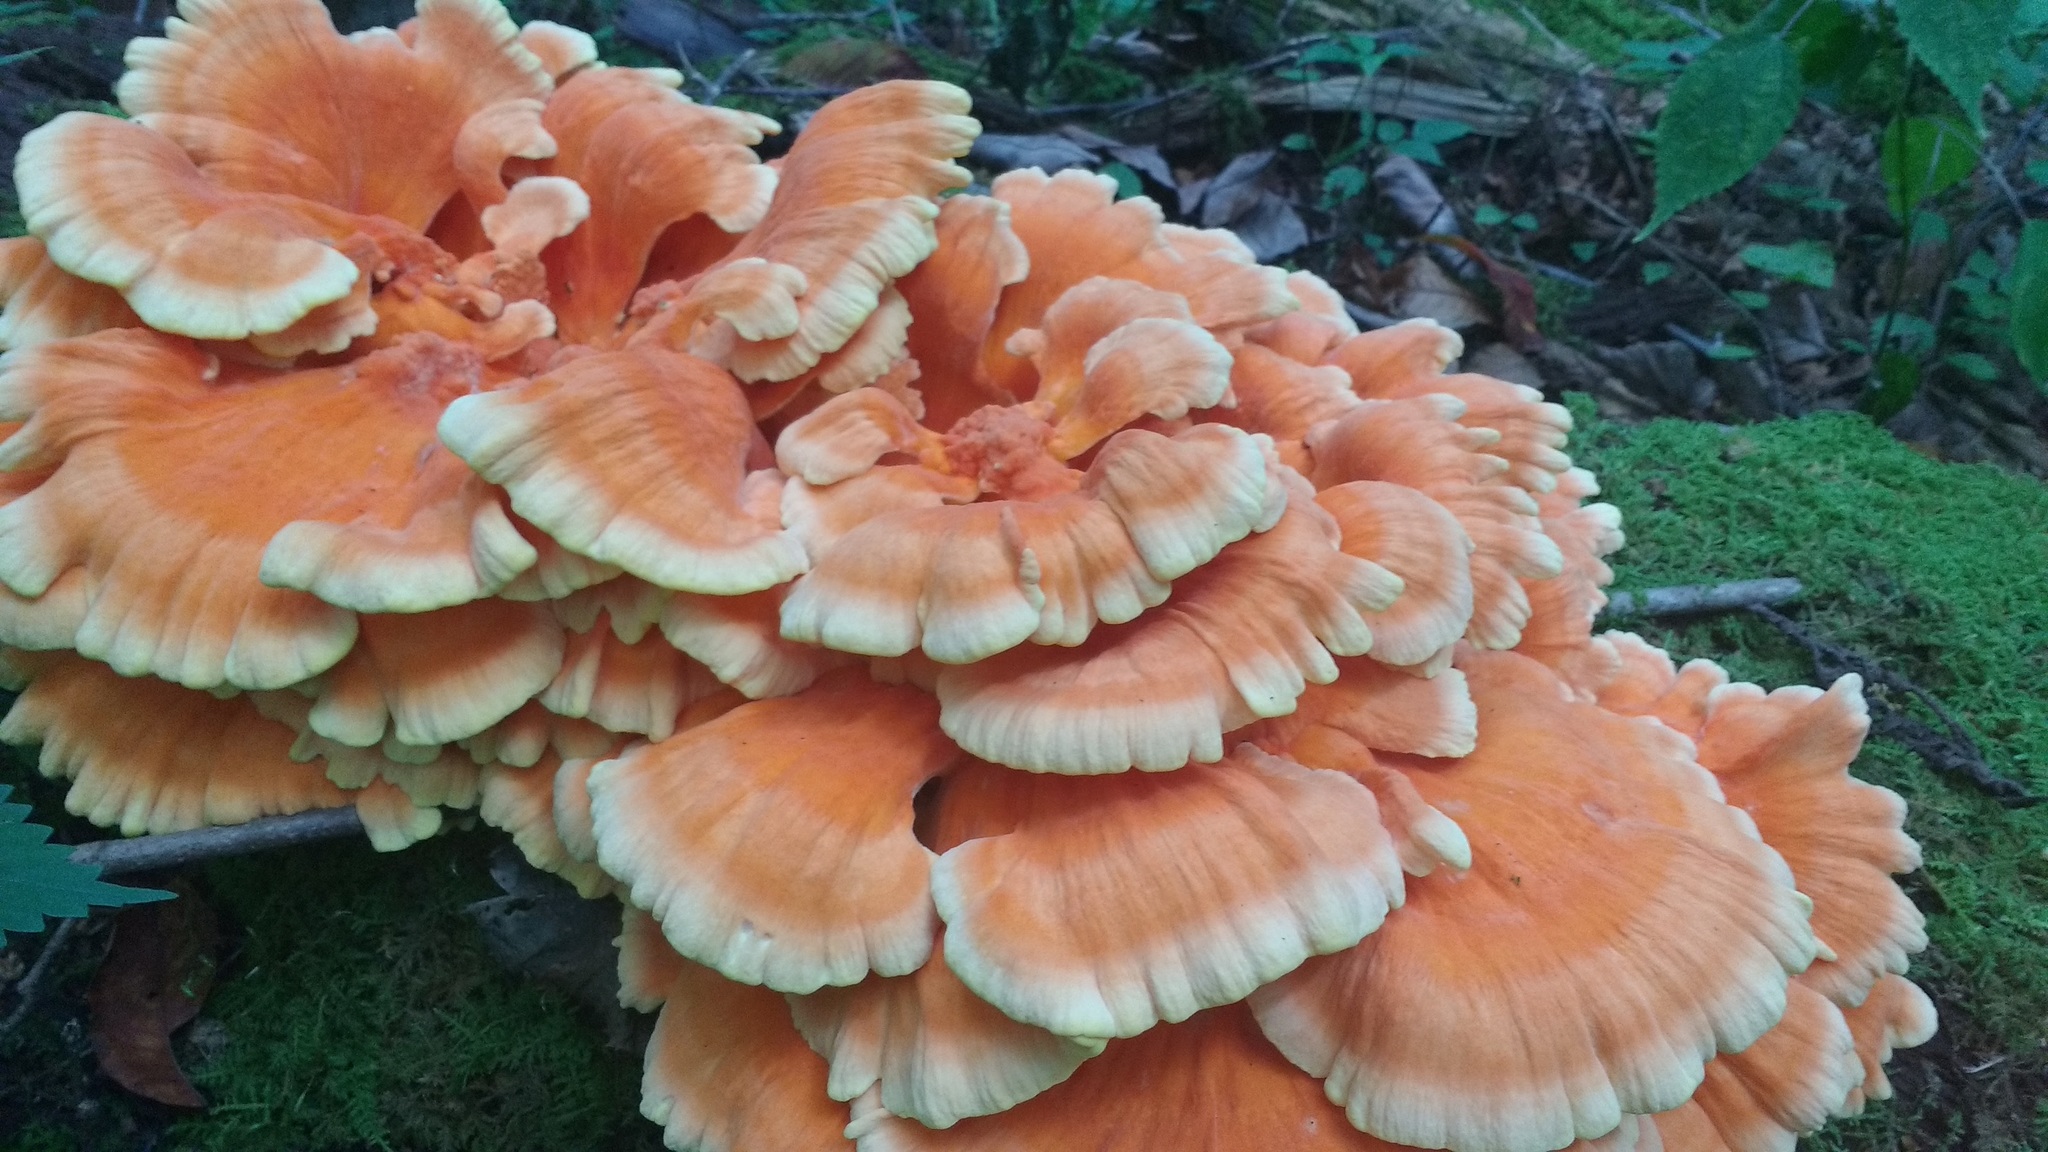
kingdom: Fungi
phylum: Basidiomycota
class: Agaricomycetes
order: Polyporales
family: Laetiporaceae
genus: Laetiporus
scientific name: Laetiporus sulphureus
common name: Chicken of the woods
